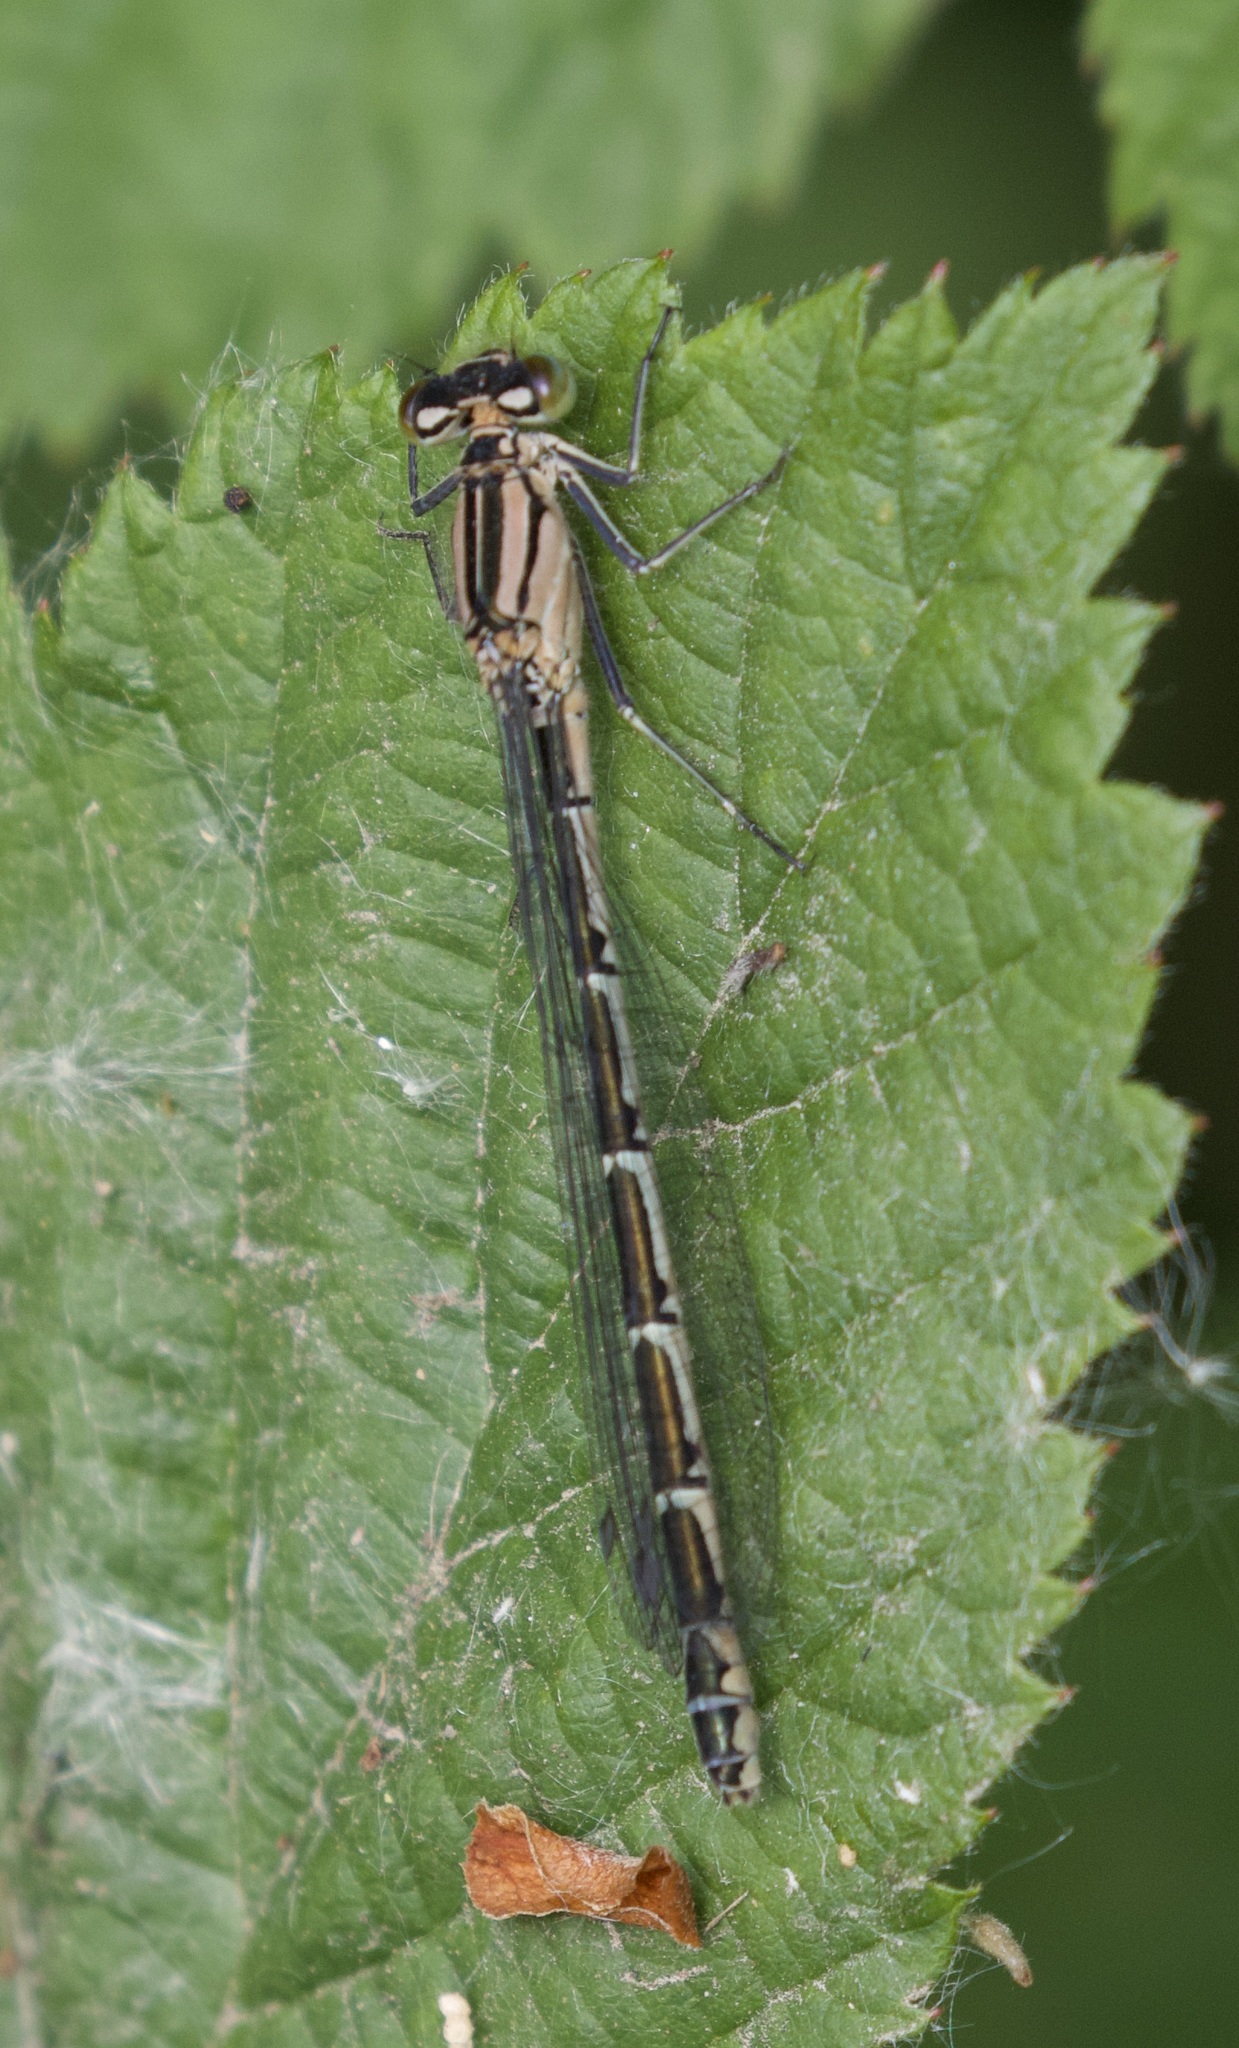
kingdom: Animalia
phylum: Arthropoda
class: Insecta
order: Odonata
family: Coenagrionidae
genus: Enallagma
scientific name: Enallagma cyathigerum
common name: Common blue damselfly
